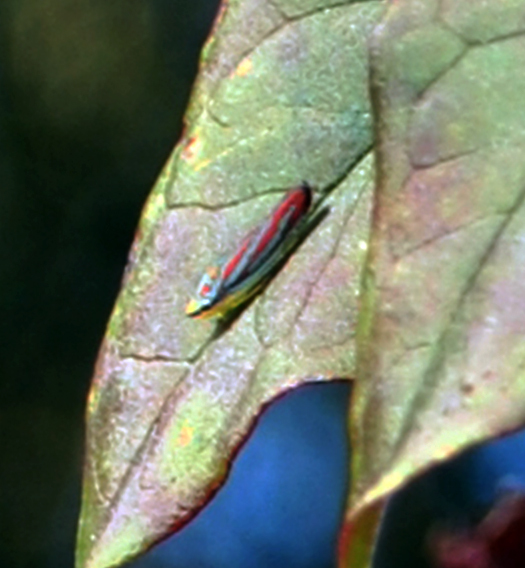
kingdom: Animalia
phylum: Arthropoda
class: Insecta
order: Hemiptera
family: Cicadellidae
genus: Graphocephala
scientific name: Graphocephala coccinea
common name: Candy-striped leafhopper
